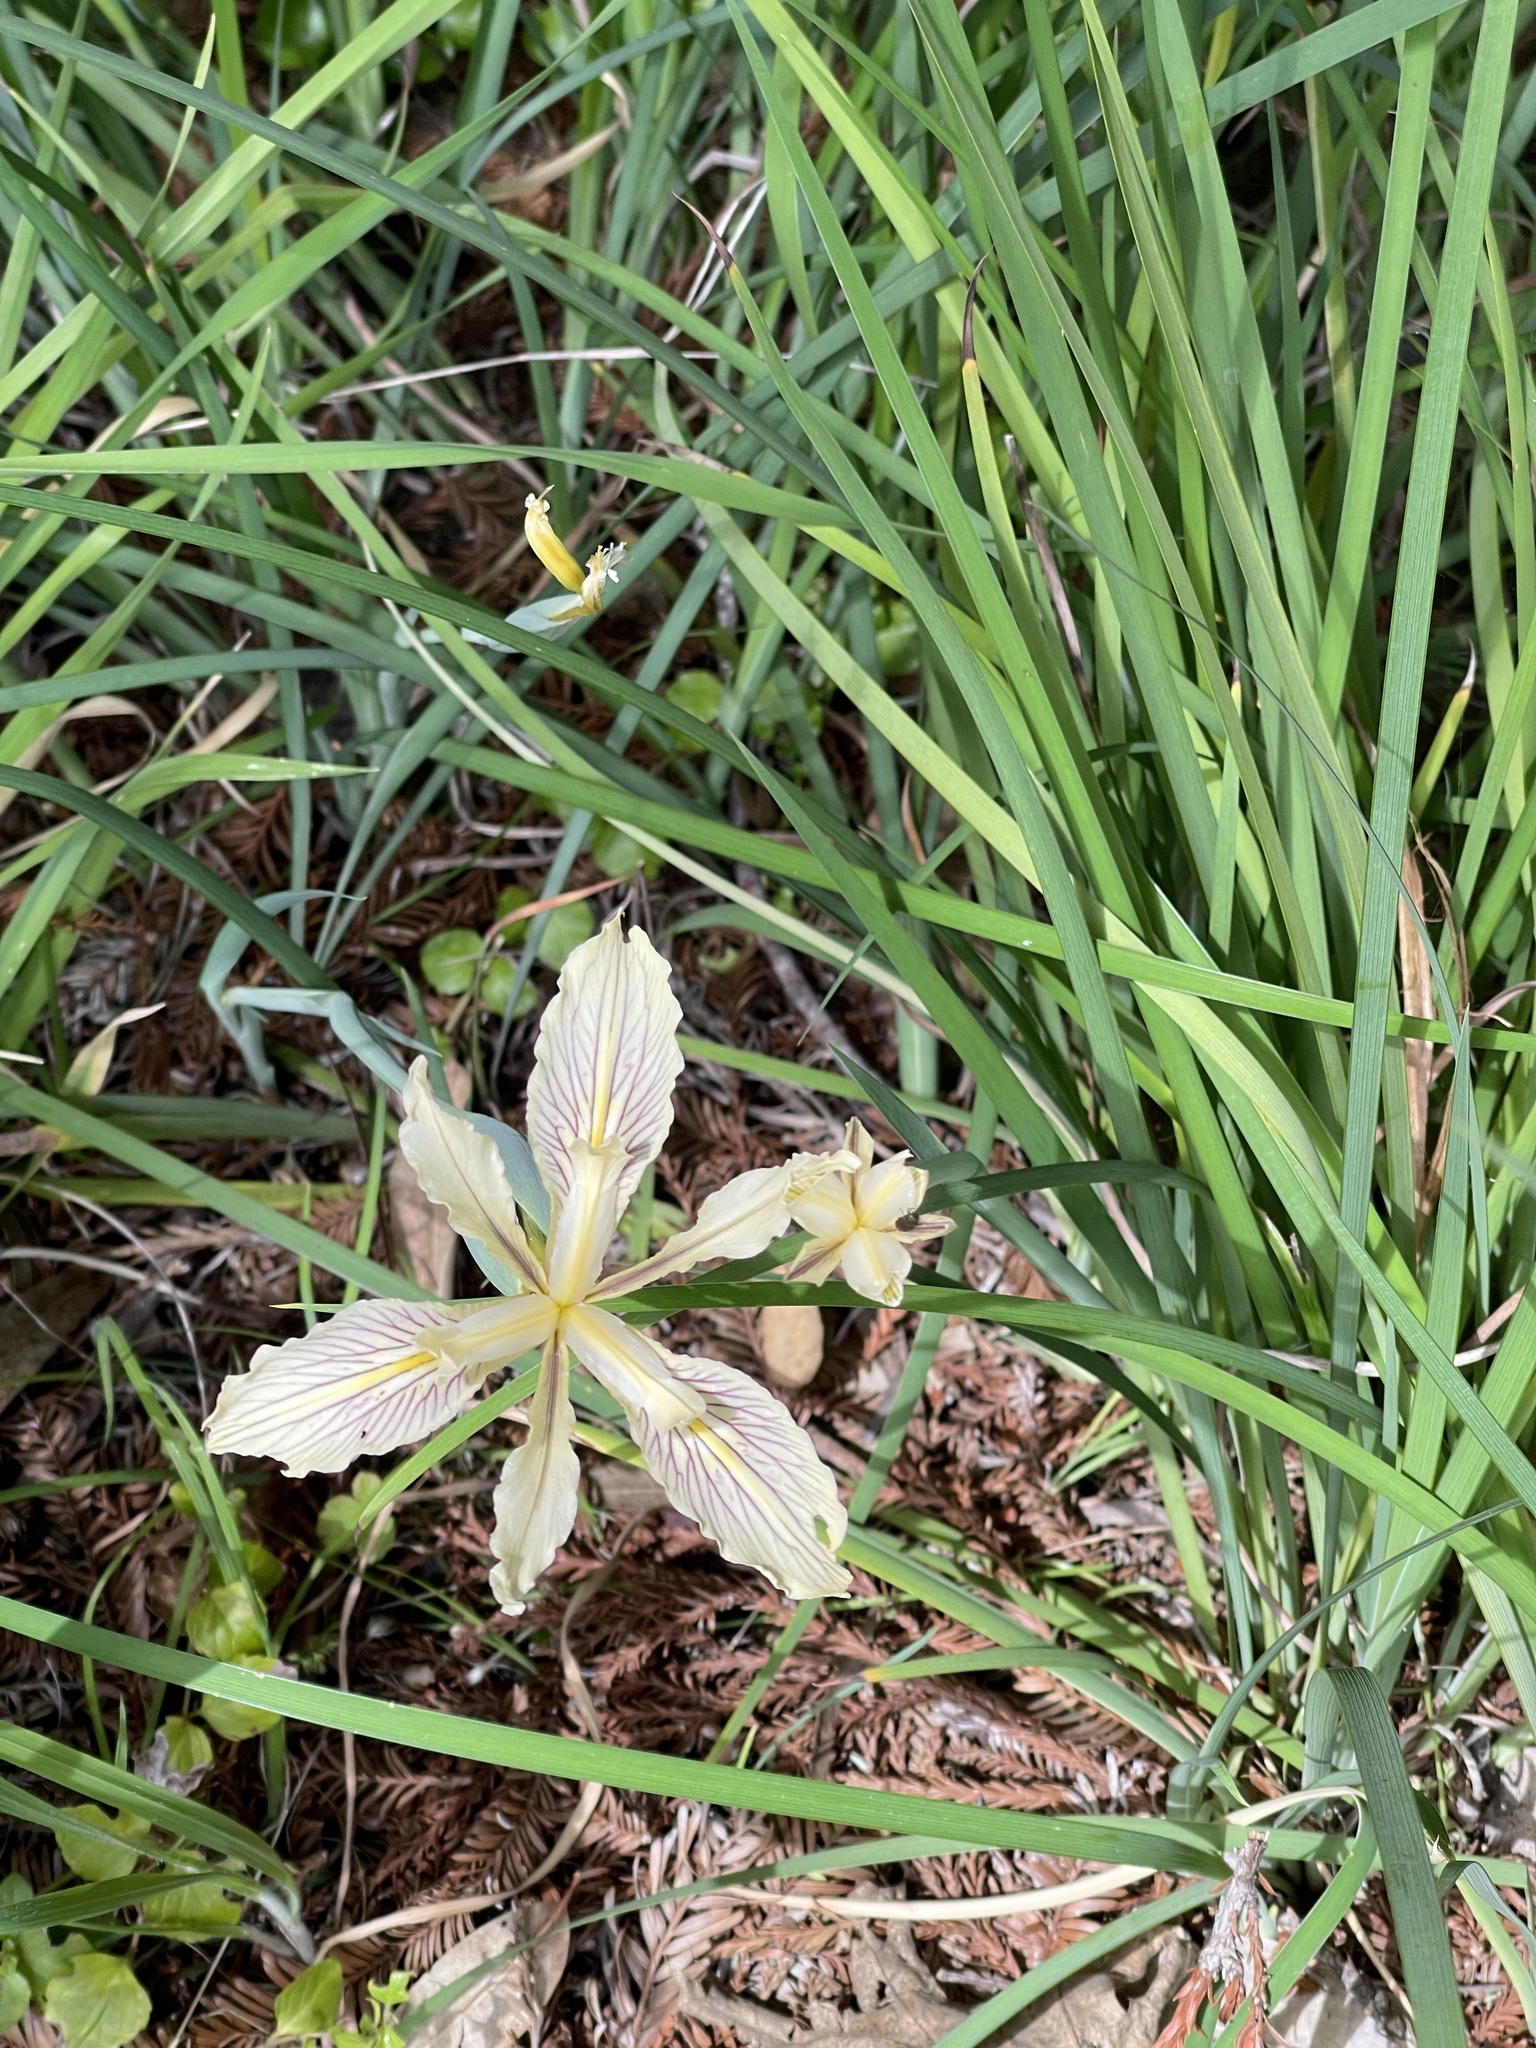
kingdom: Plantae
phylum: Tracheophyta
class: Liliopsida
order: Asparagales
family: Iridaceae
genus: Iris
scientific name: Iris fernaldii
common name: Fernald's iris
